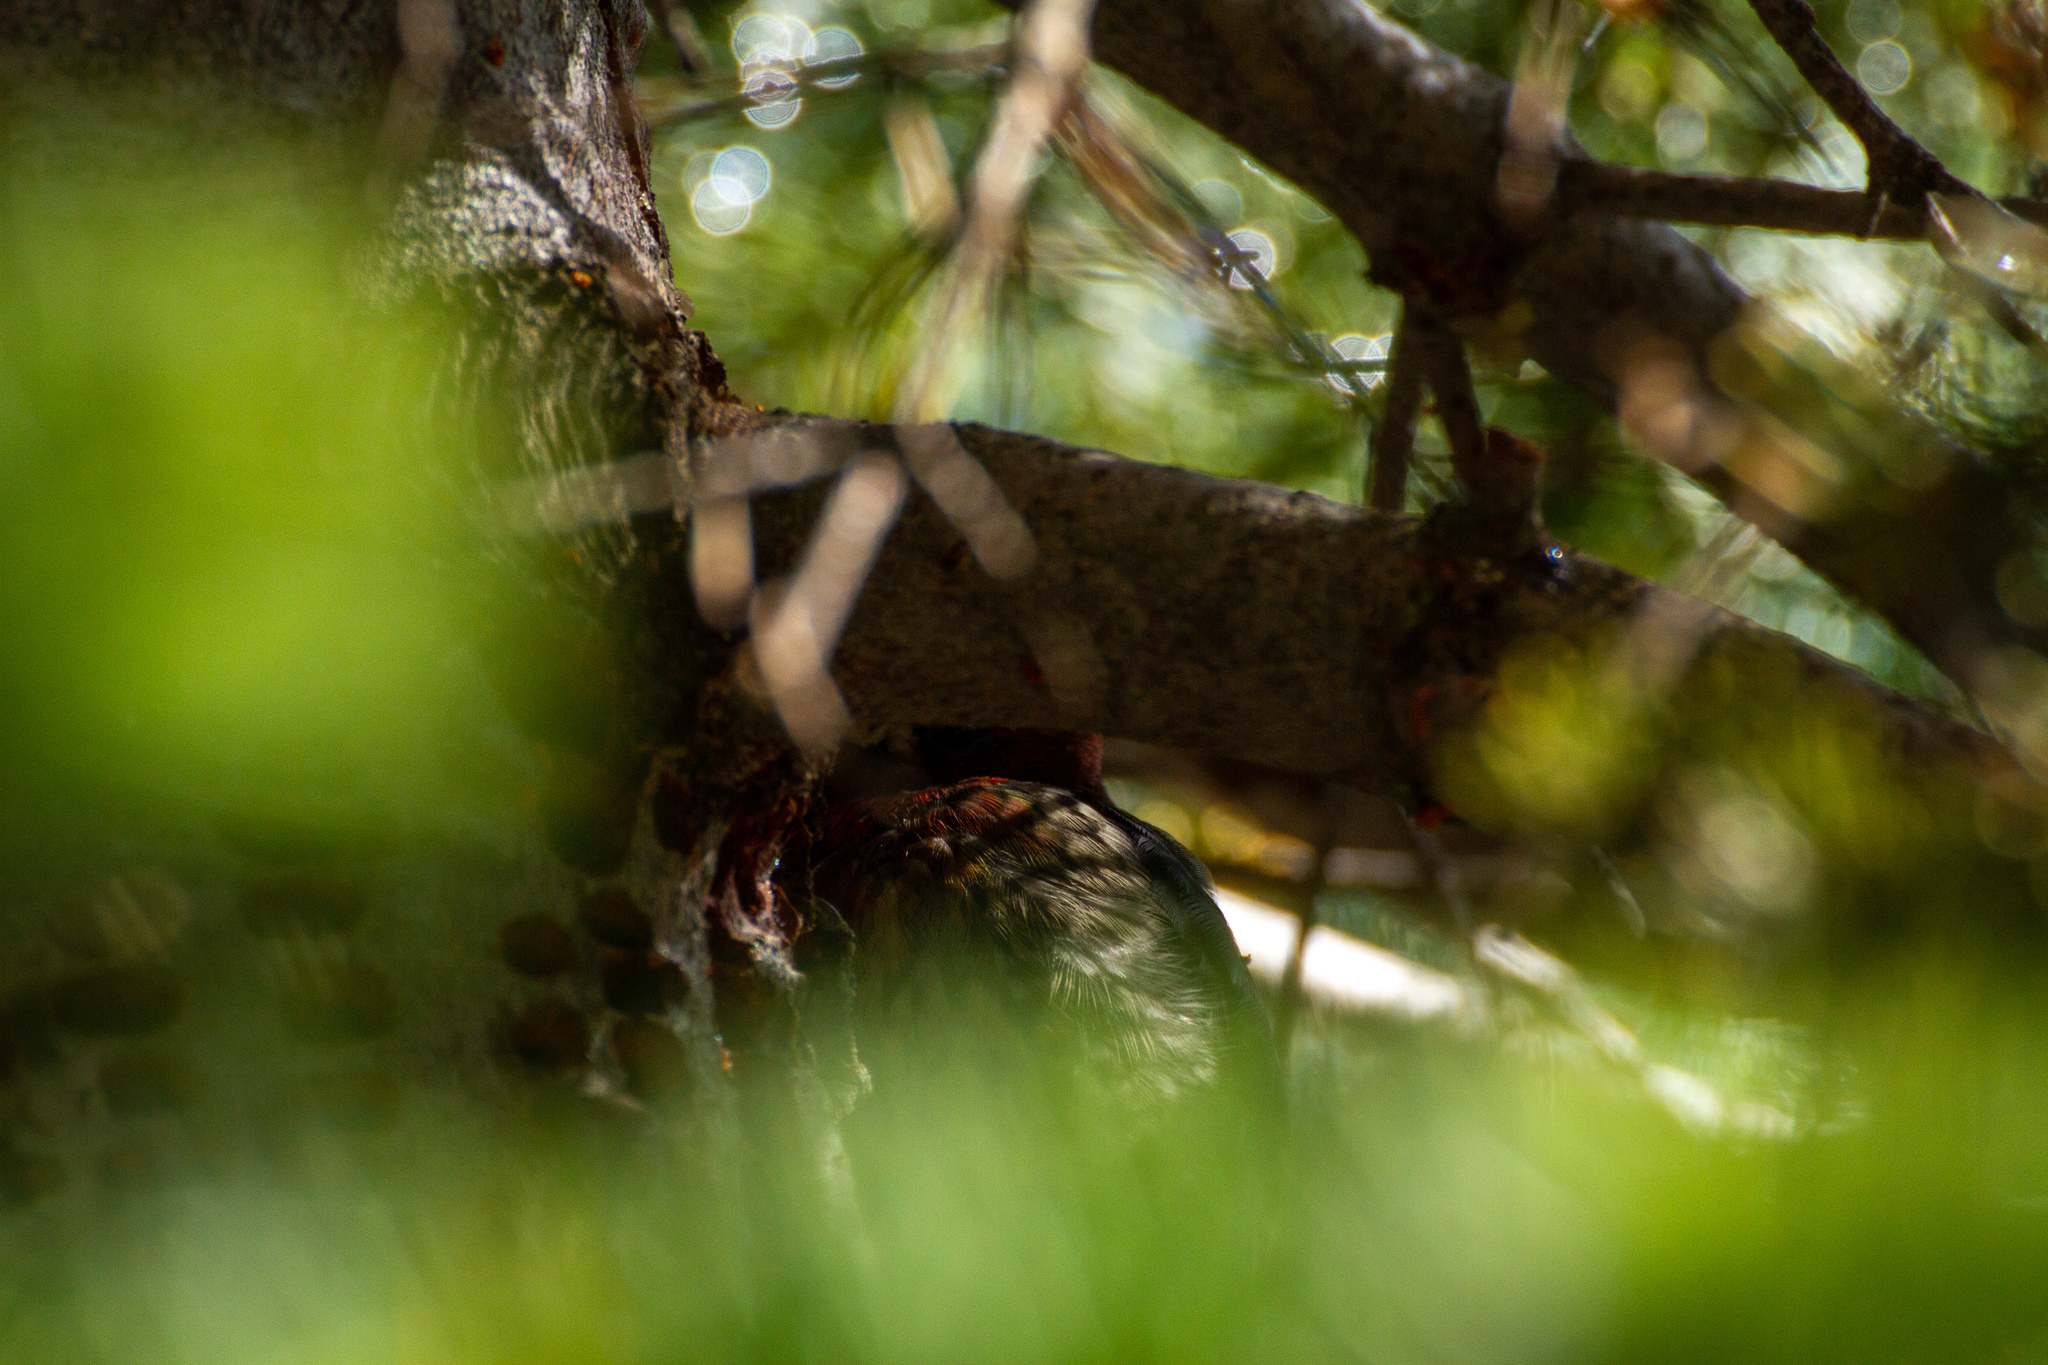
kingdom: Animalia
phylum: Chordata
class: Aves
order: Piciformes
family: Picidae
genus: Sphyrapicus
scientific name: Sphyrapicus ruber
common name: Red-breasted sapsucker
